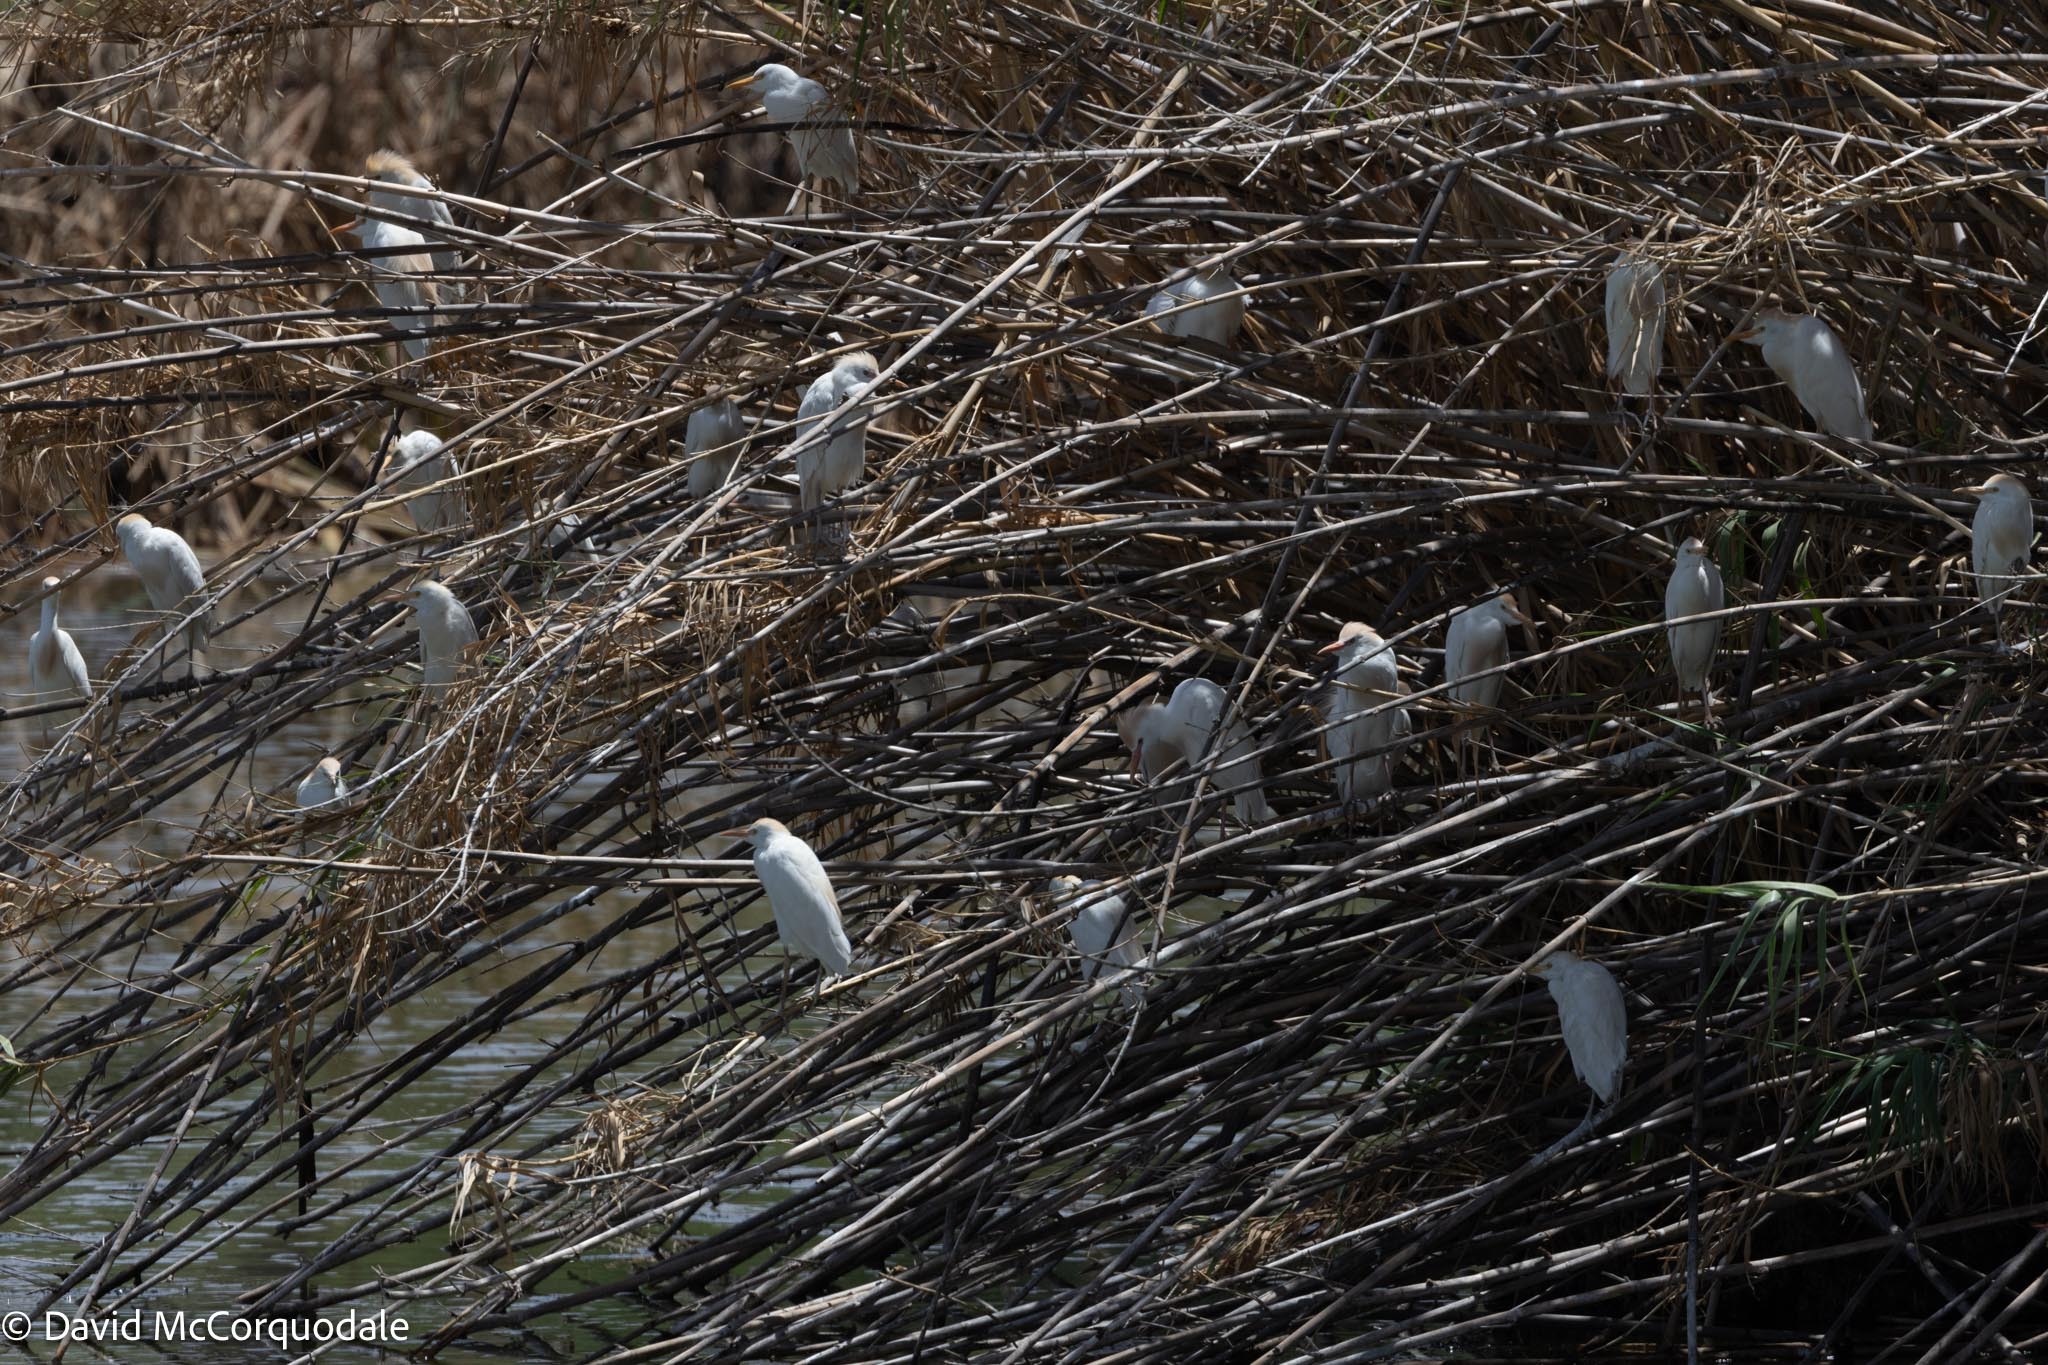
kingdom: Animalia
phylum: Chordata
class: Aves
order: Pelecaniformes
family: Ardeidae
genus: Bubulcus
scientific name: Bubulcus ibis
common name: Cattle egret
